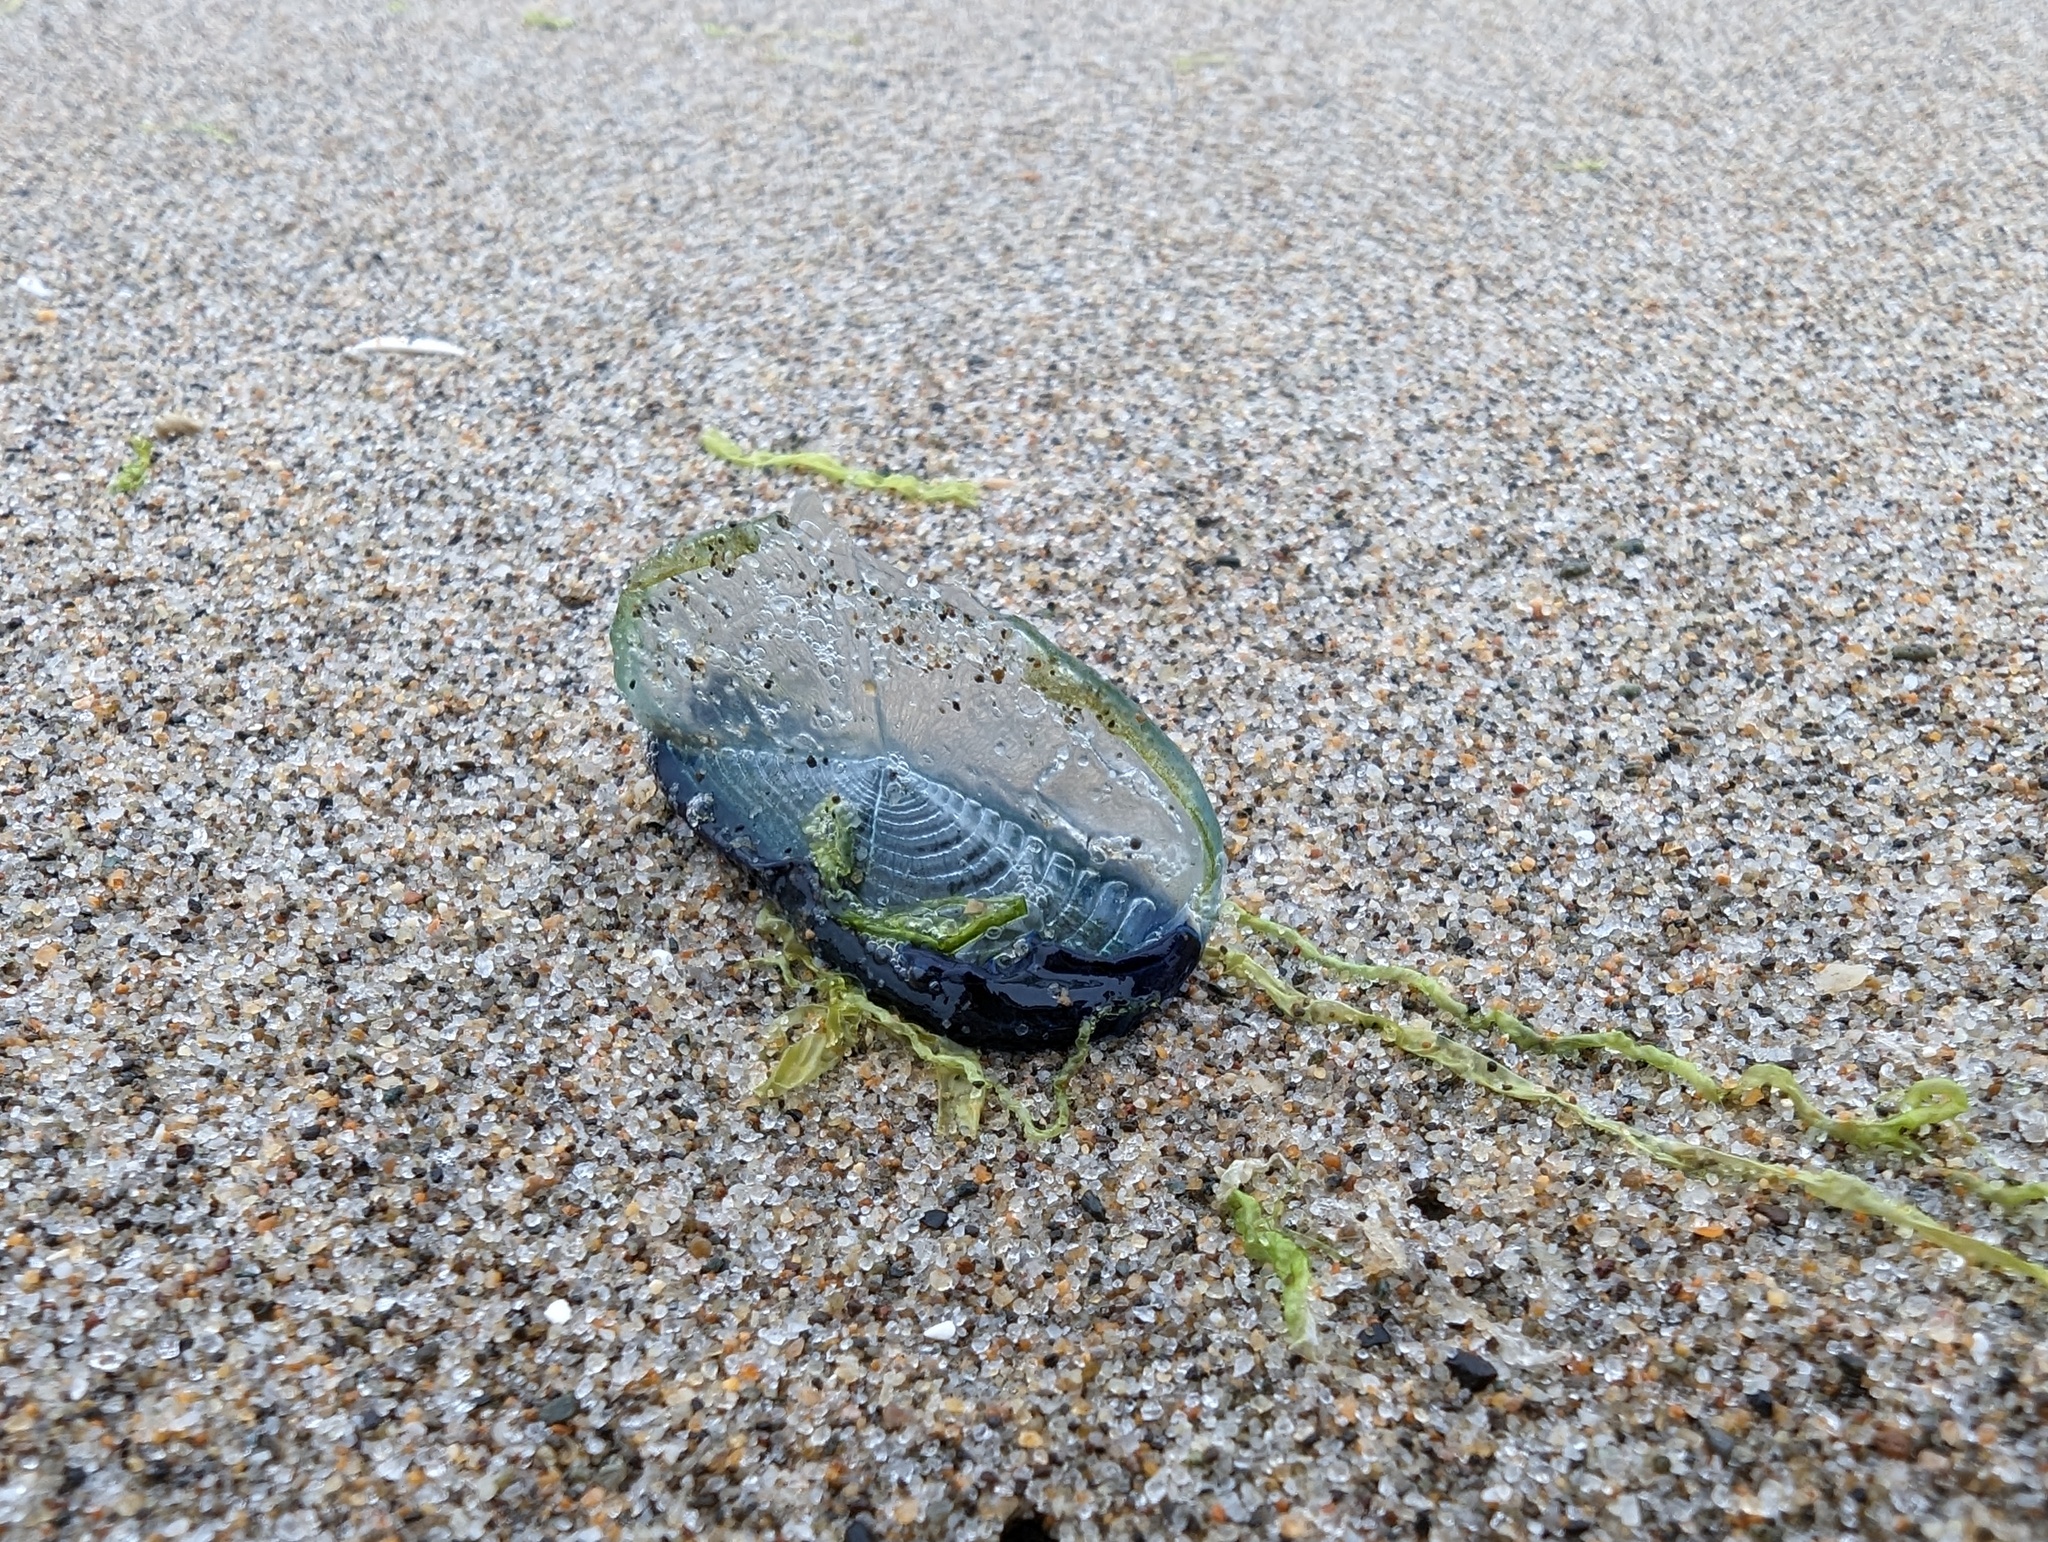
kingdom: Animalia
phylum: Cnidaria
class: Hydrozoa
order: Anthoathecata
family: Porpitidae
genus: Velella
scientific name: Velella velella
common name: By-the-wind-sailor
